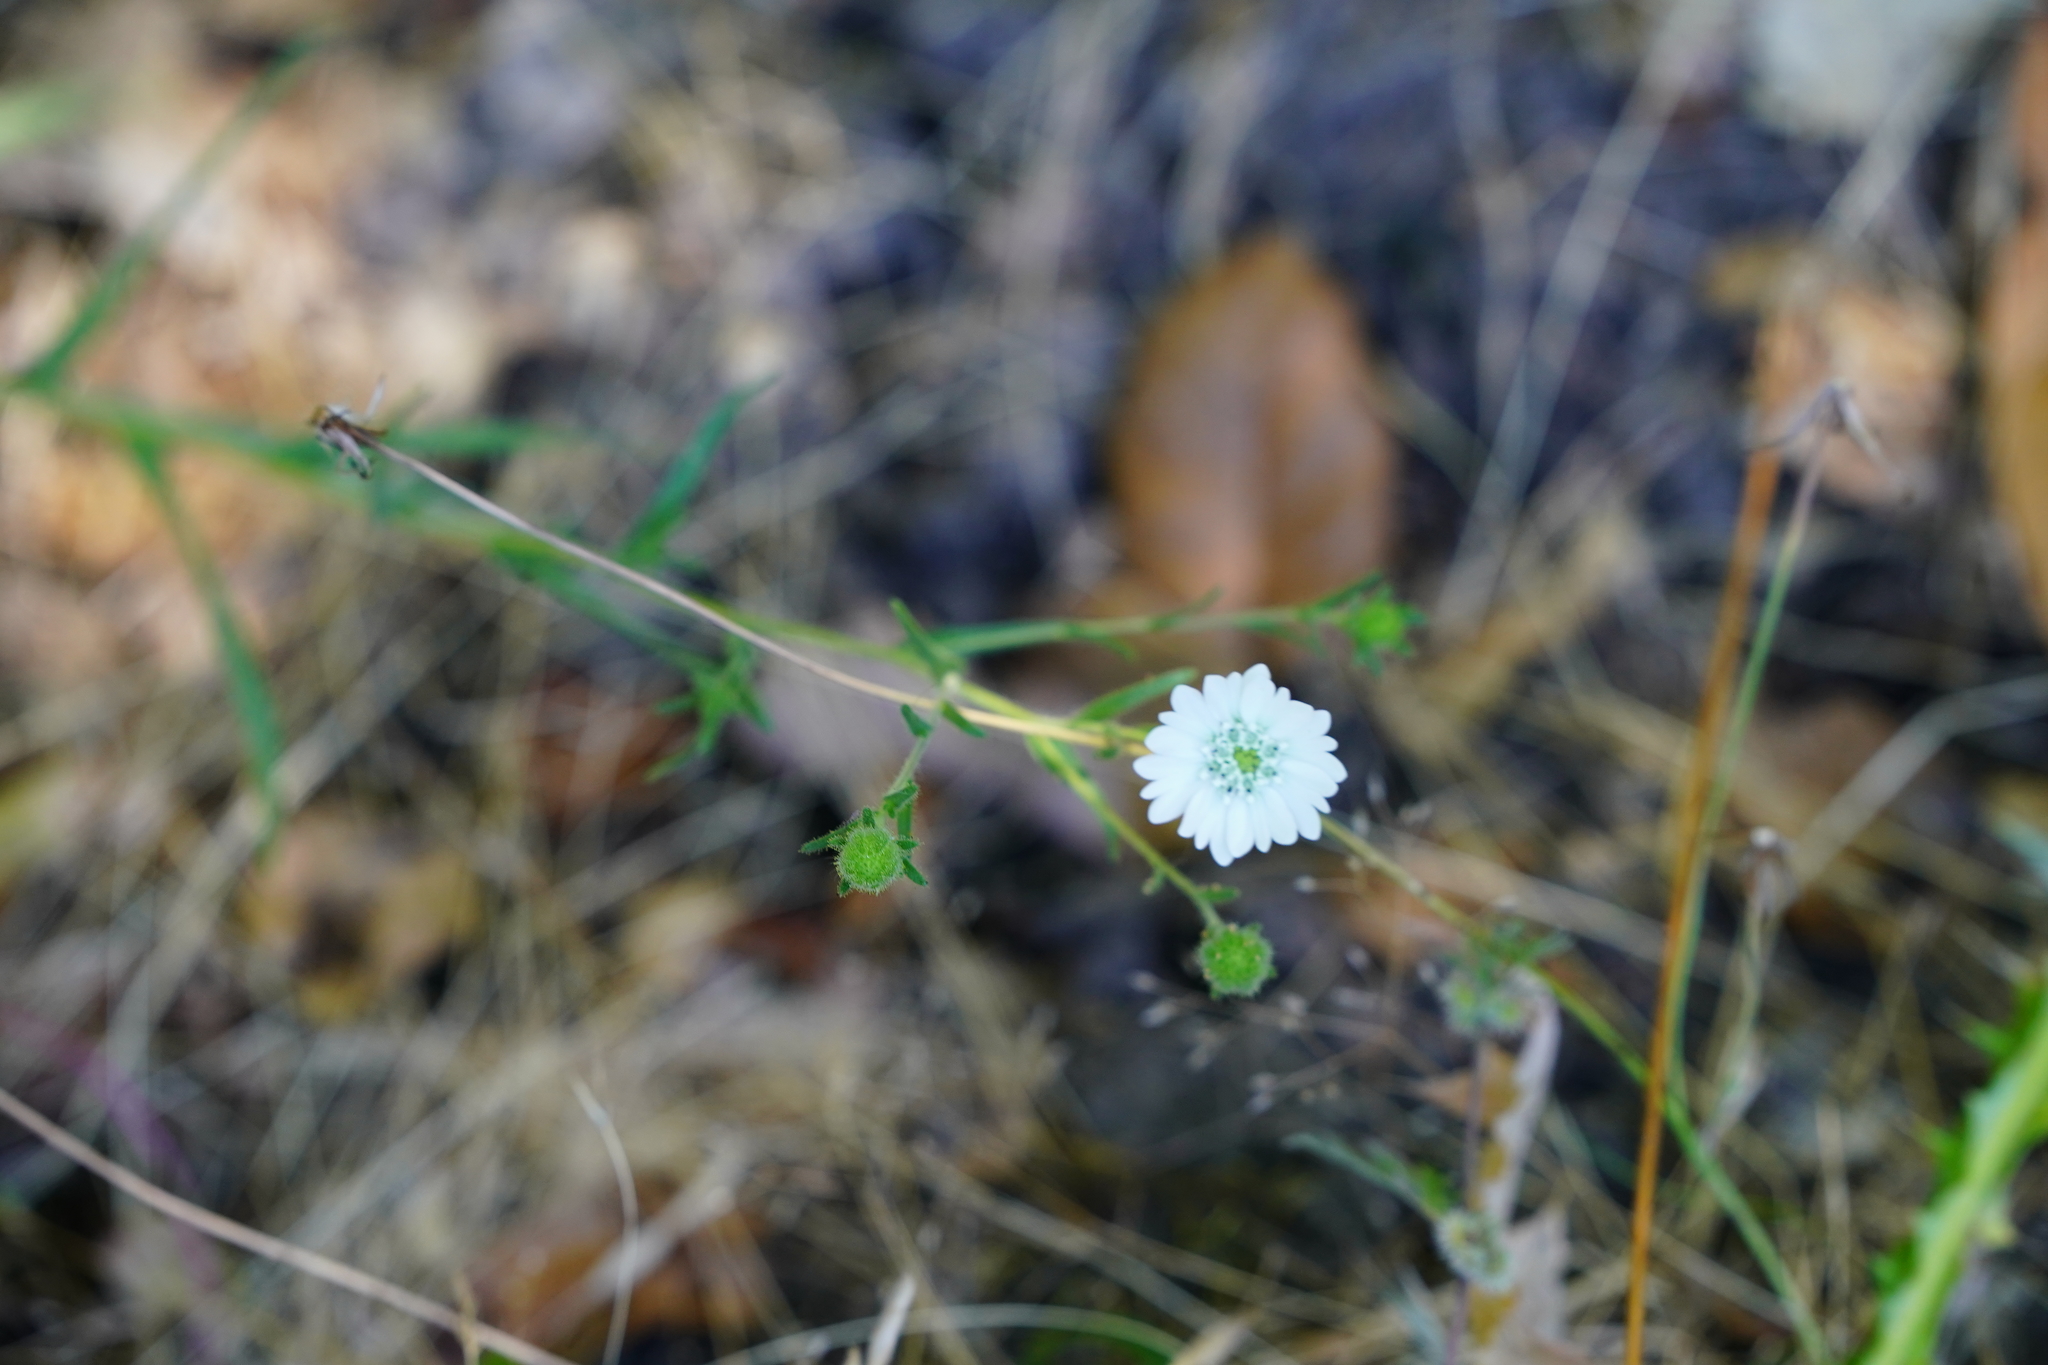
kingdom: Plantae
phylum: Tracheophyta
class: Magnoliopsida
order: Asterales
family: Asteraceae
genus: Hemizonia
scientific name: Hemizonia congesta
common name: Hayfield tarweed
